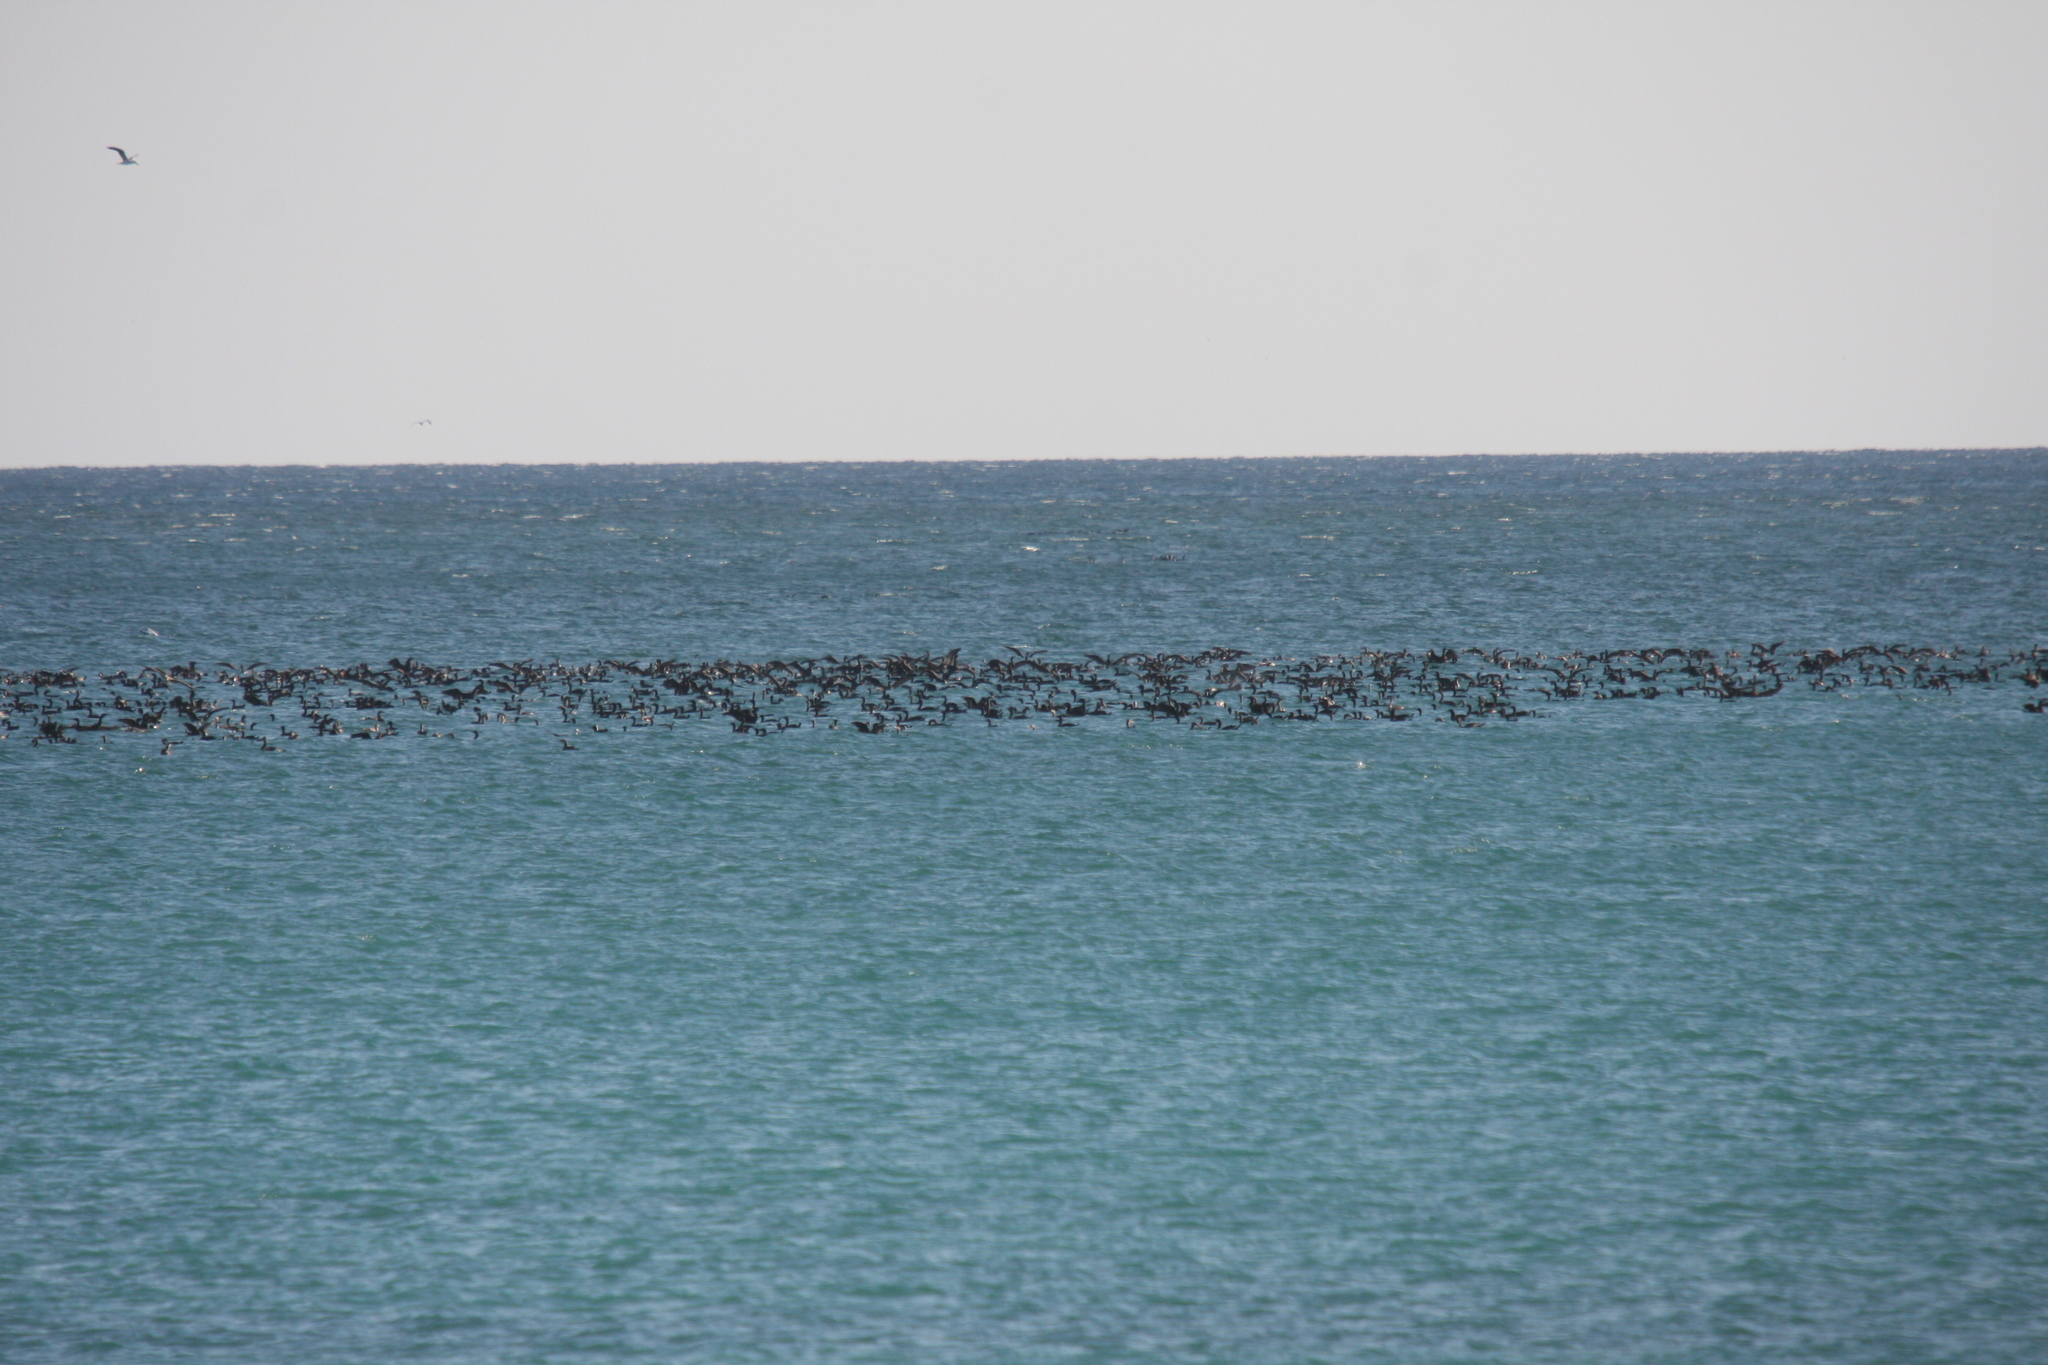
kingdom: Animalia
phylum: Chordata
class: Aves
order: Suliformes
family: Phalacrocoracidae
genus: Phalacrocorax
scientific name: Phalacrocorax nigrogularis
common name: Socotra cormorant
